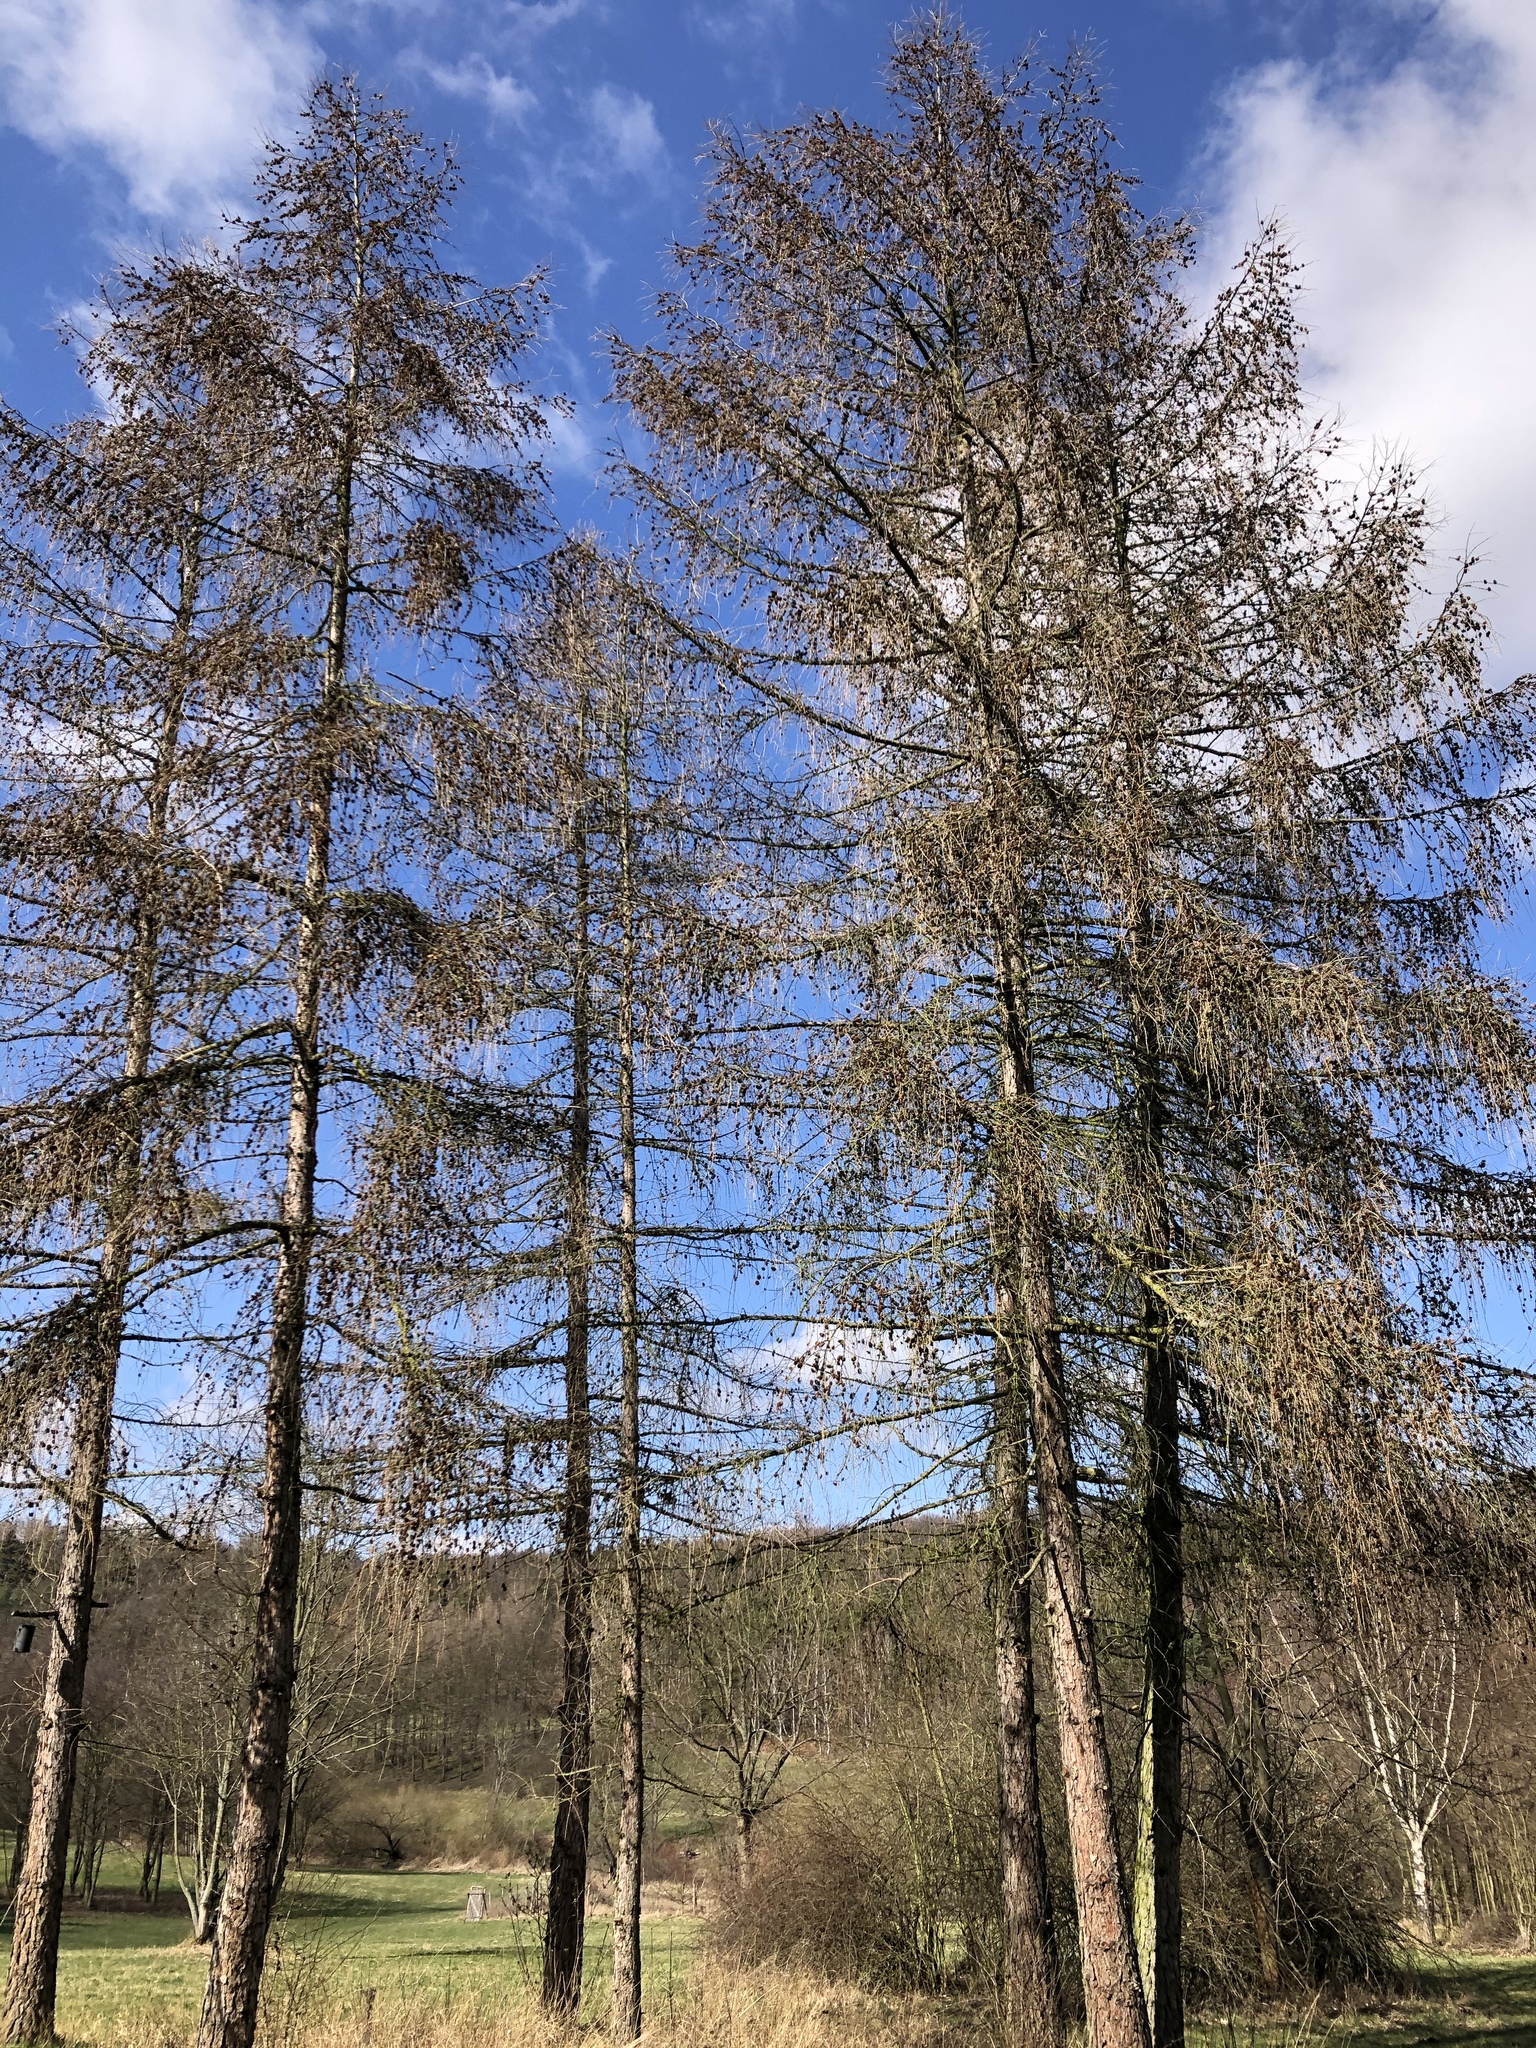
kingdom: Plantae
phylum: Tracheophyta
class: Pinopsida
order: Pinales
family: Pinaceae
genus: Larix
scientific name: Larix decidua
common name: European larch
